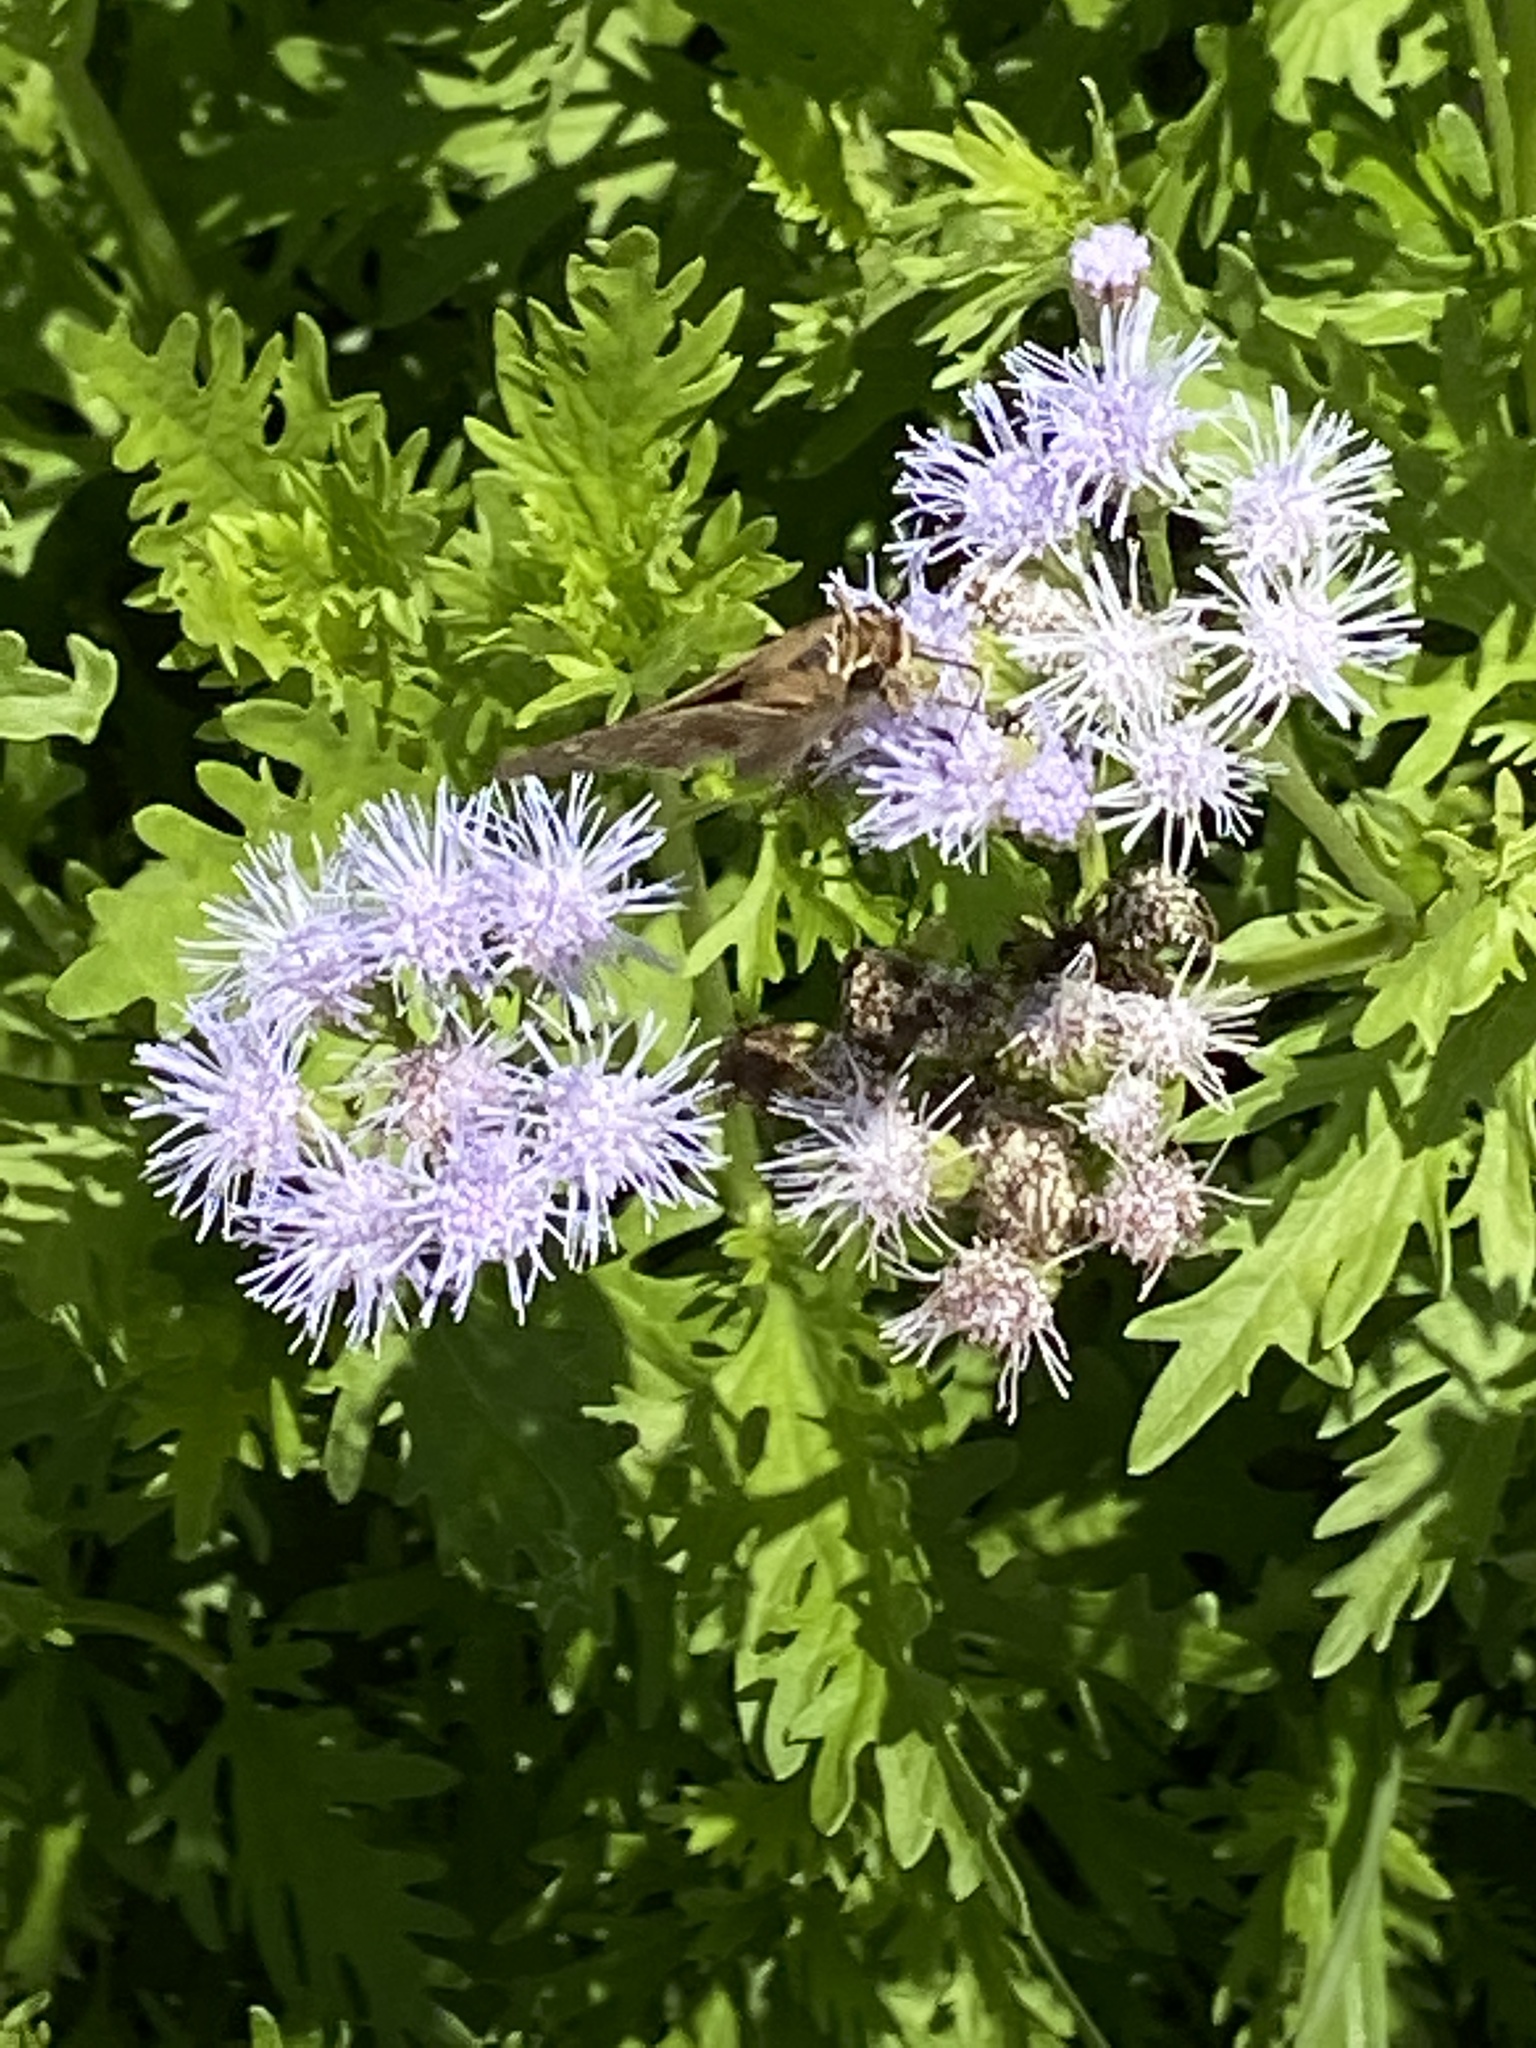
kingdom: Animalia
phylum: Arthropoda
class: Insecta
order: Lepidoptera
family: Hesperiidae
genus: Atalopedes
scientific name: Atalopedes
